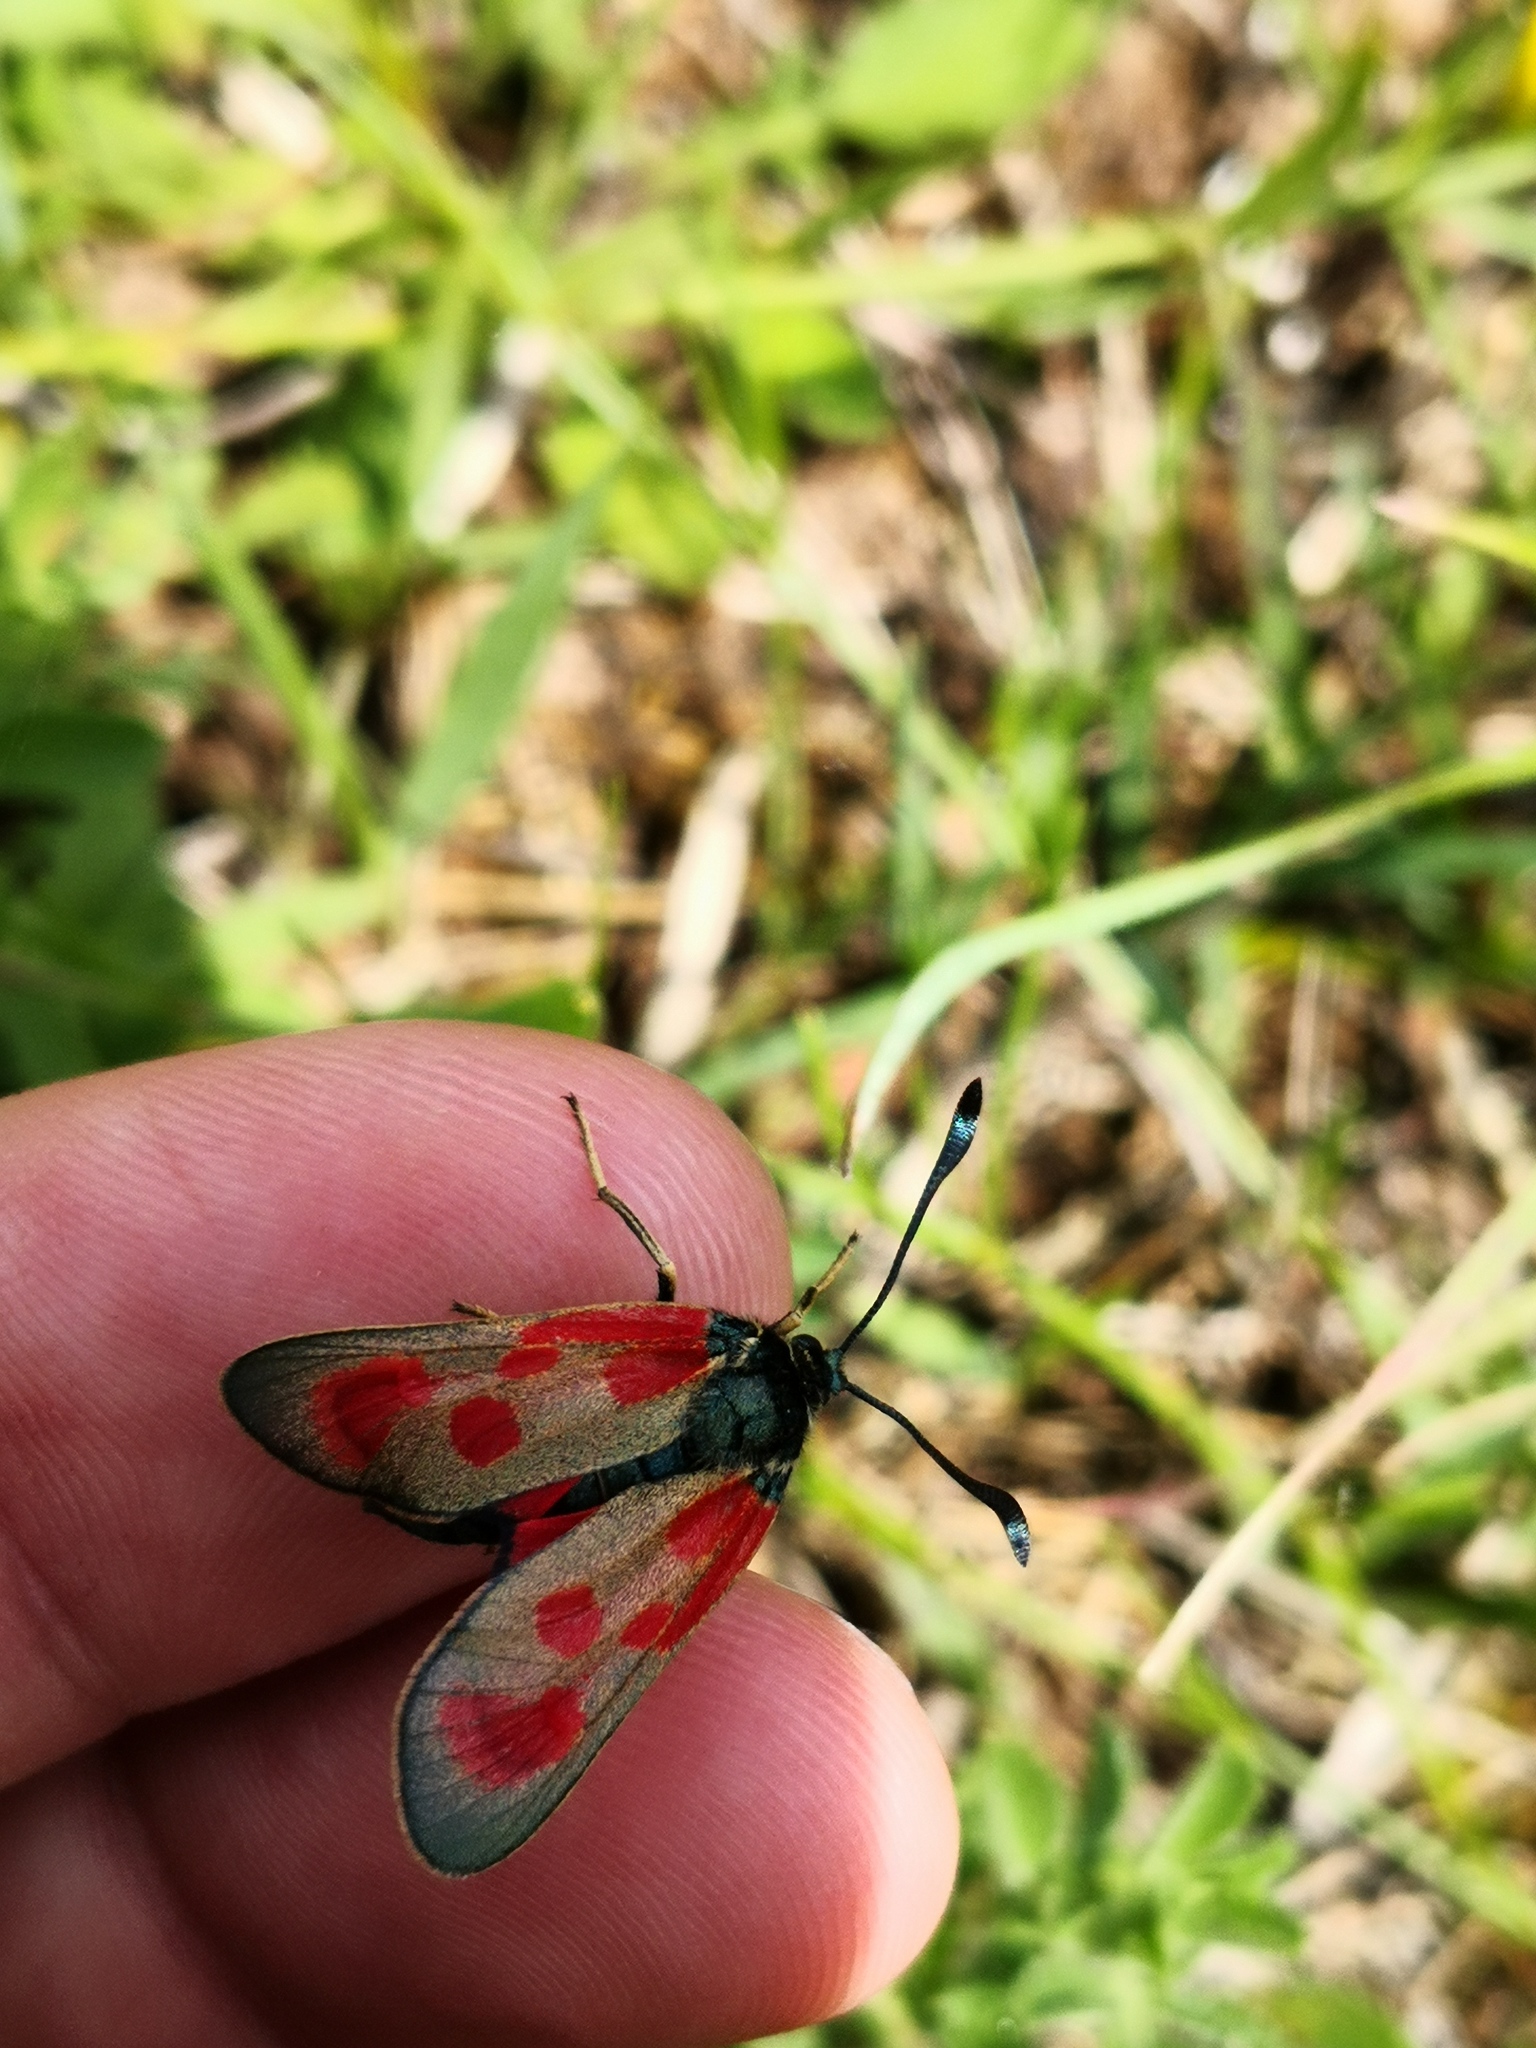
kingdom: Animalia
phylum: Arthropoda
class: Insecta
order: Lepidoptera
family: Zygaenidae
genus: Zygaena
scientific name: Zygaena loti
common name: Slender scotch burnet
